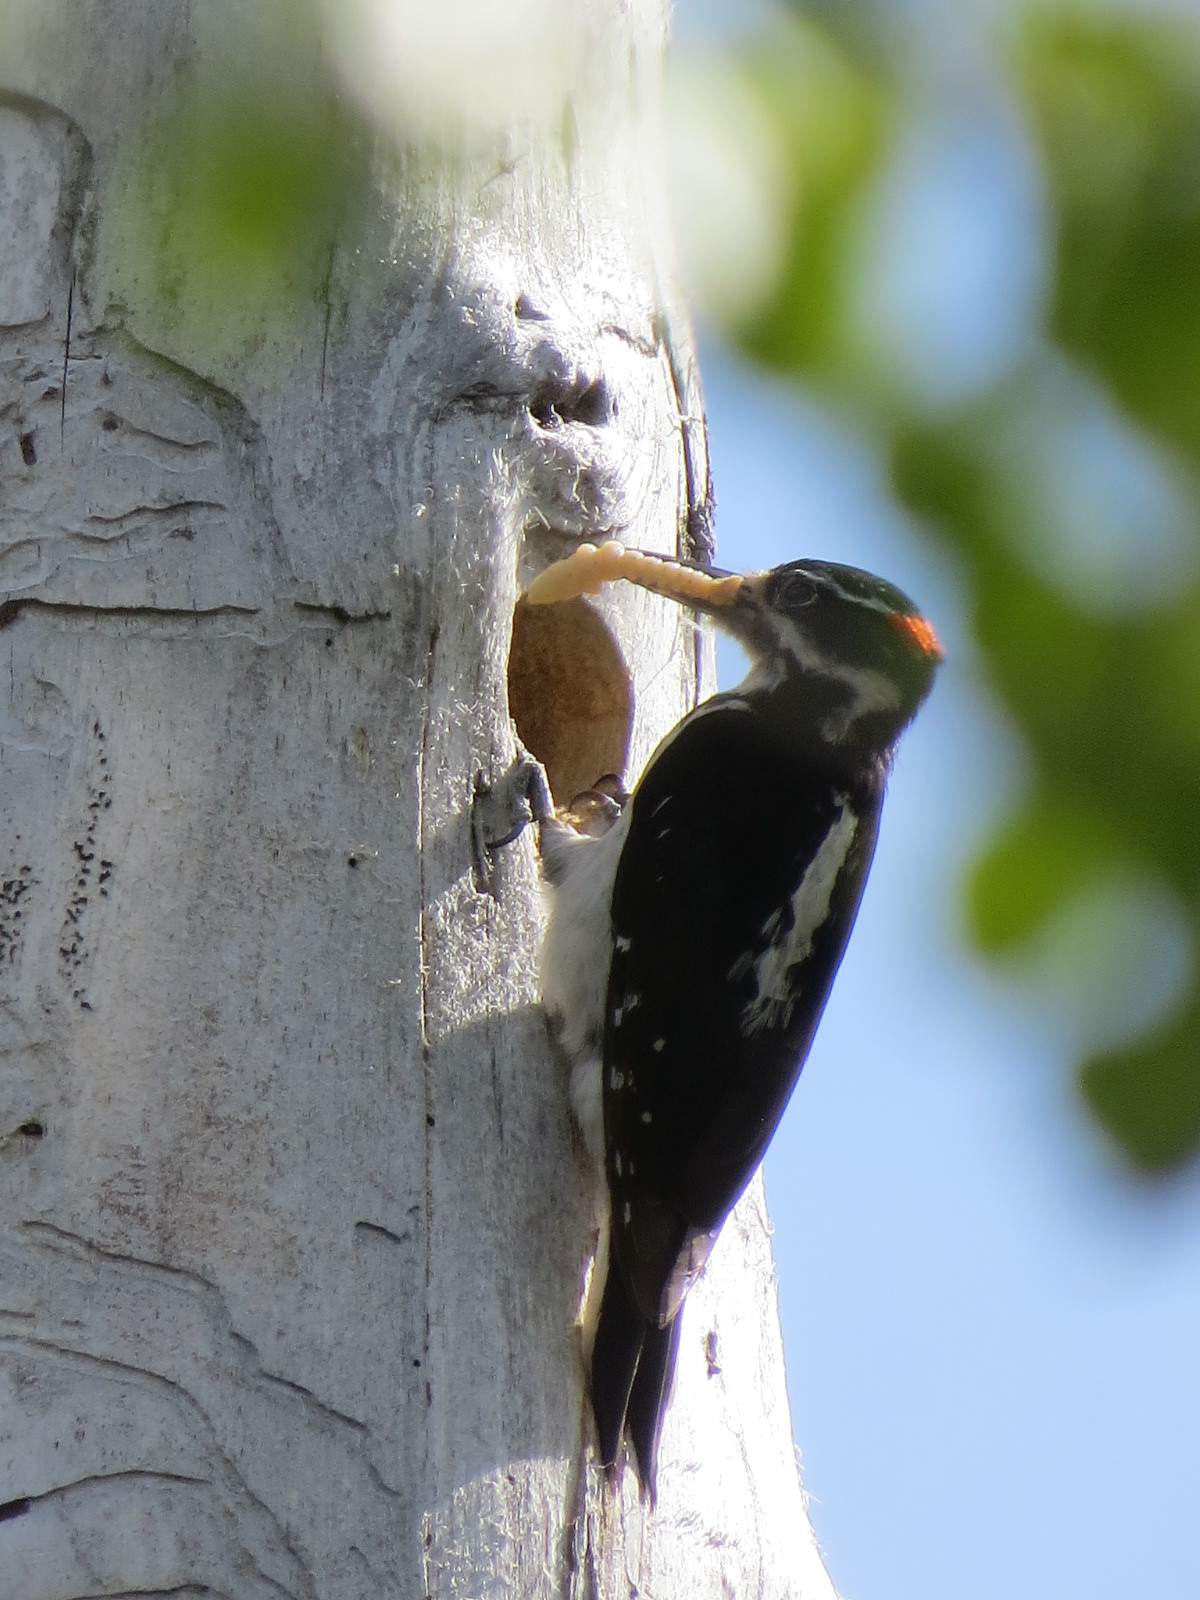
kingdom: Animalia
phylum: Chordata
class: Aves
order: Piciformes
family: Picidae
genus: Leuconotopicus
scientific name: Leuconotopicus villosus
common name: Hairy woodpecker
